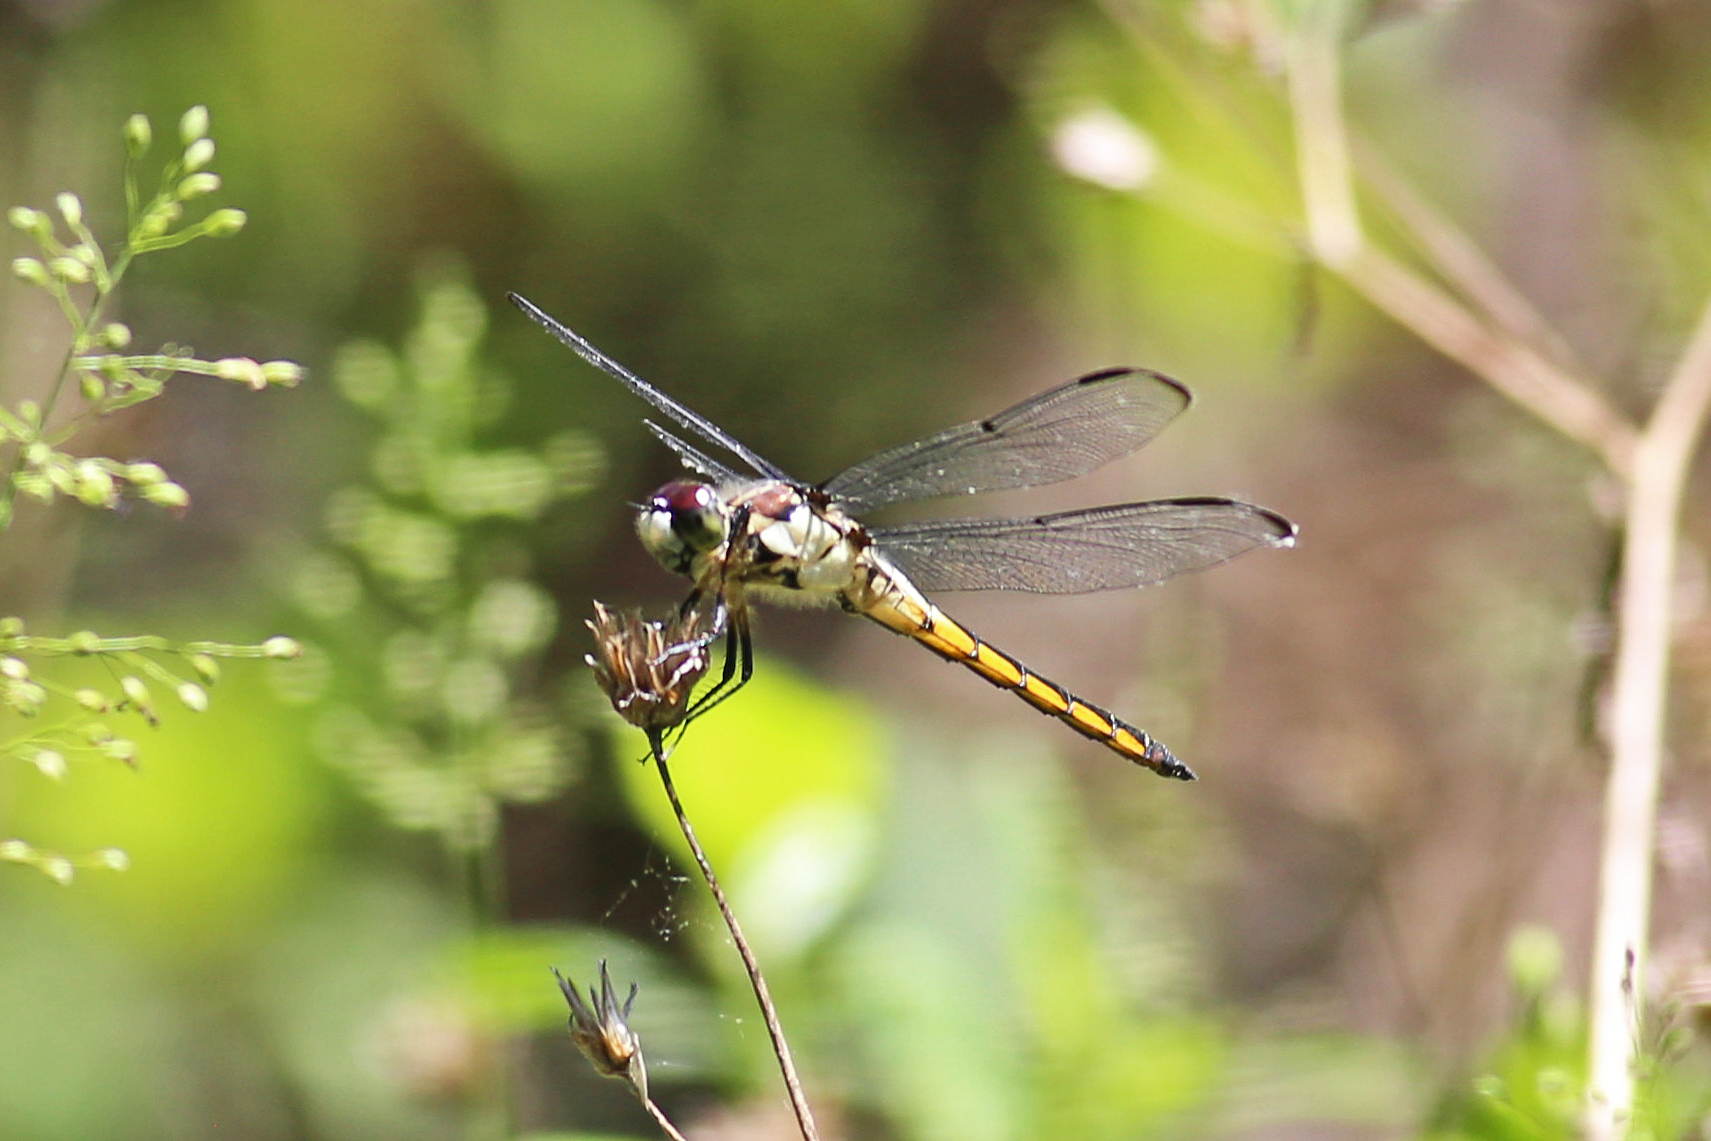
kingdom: Animalia
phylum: Arthropoda
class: Insecta
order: Odonata
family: Libellulidae
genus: Libellula
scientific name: Libellula vibrans
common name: Great blue skimmer
